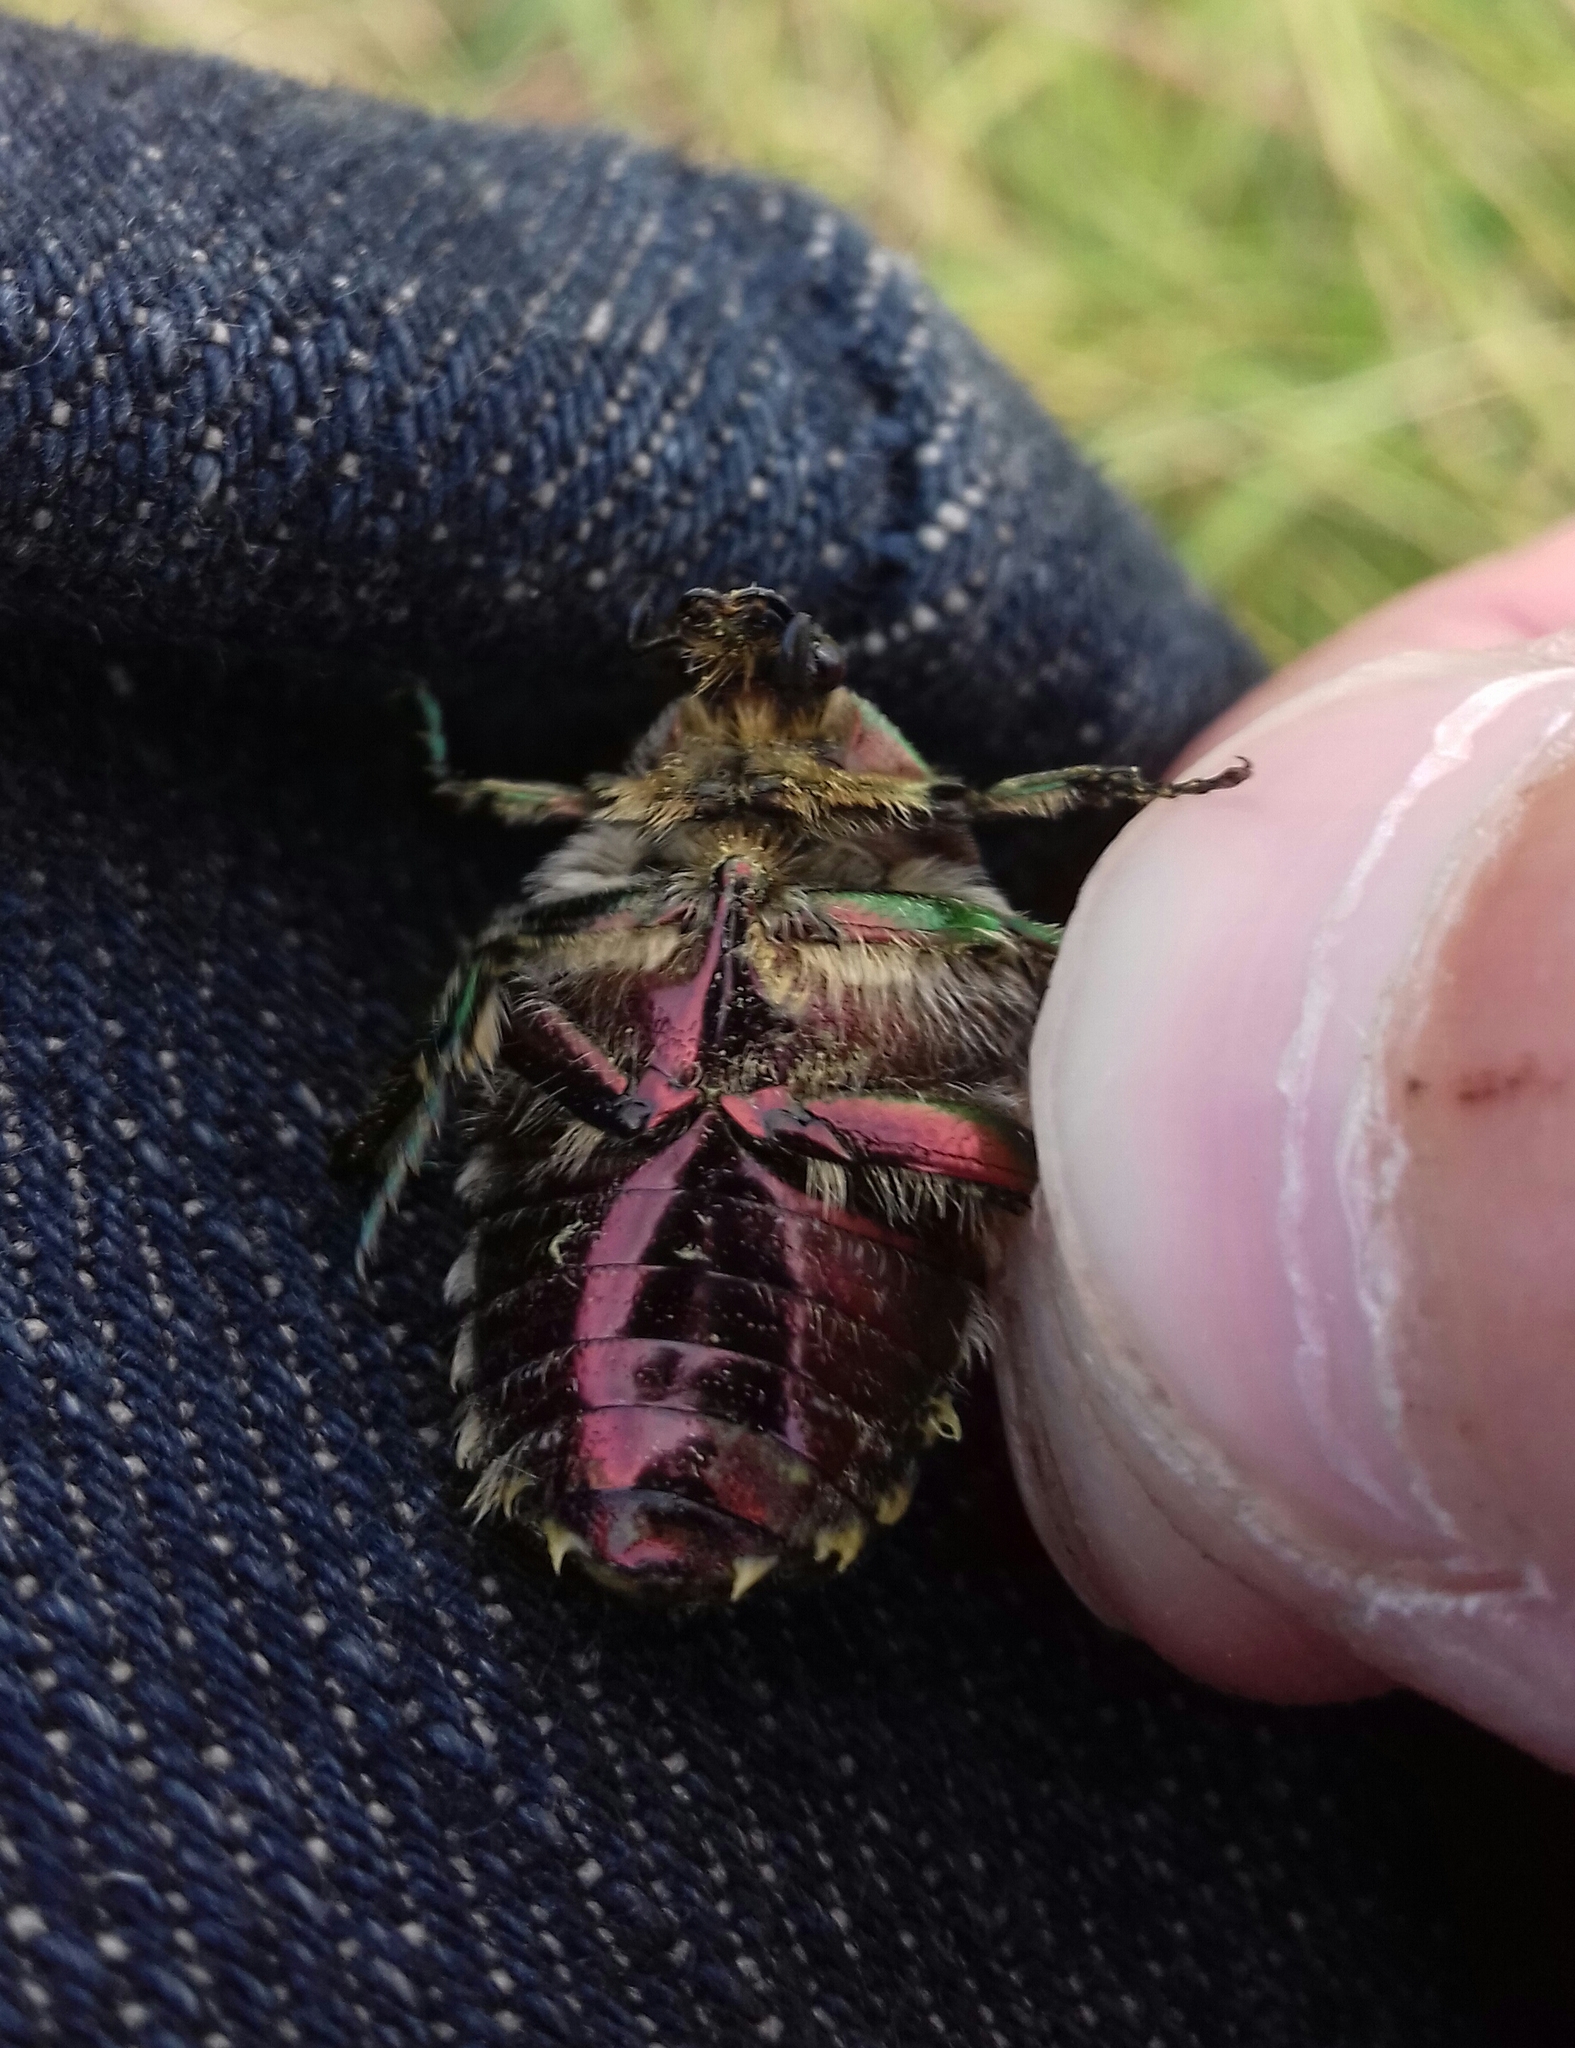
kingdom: Animalia
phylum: Arthropoda
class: Insecta
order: Coleoptera
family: Scarabaeidae
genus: Cetonia
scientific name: Cetonia aurata
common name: Rose chafer
